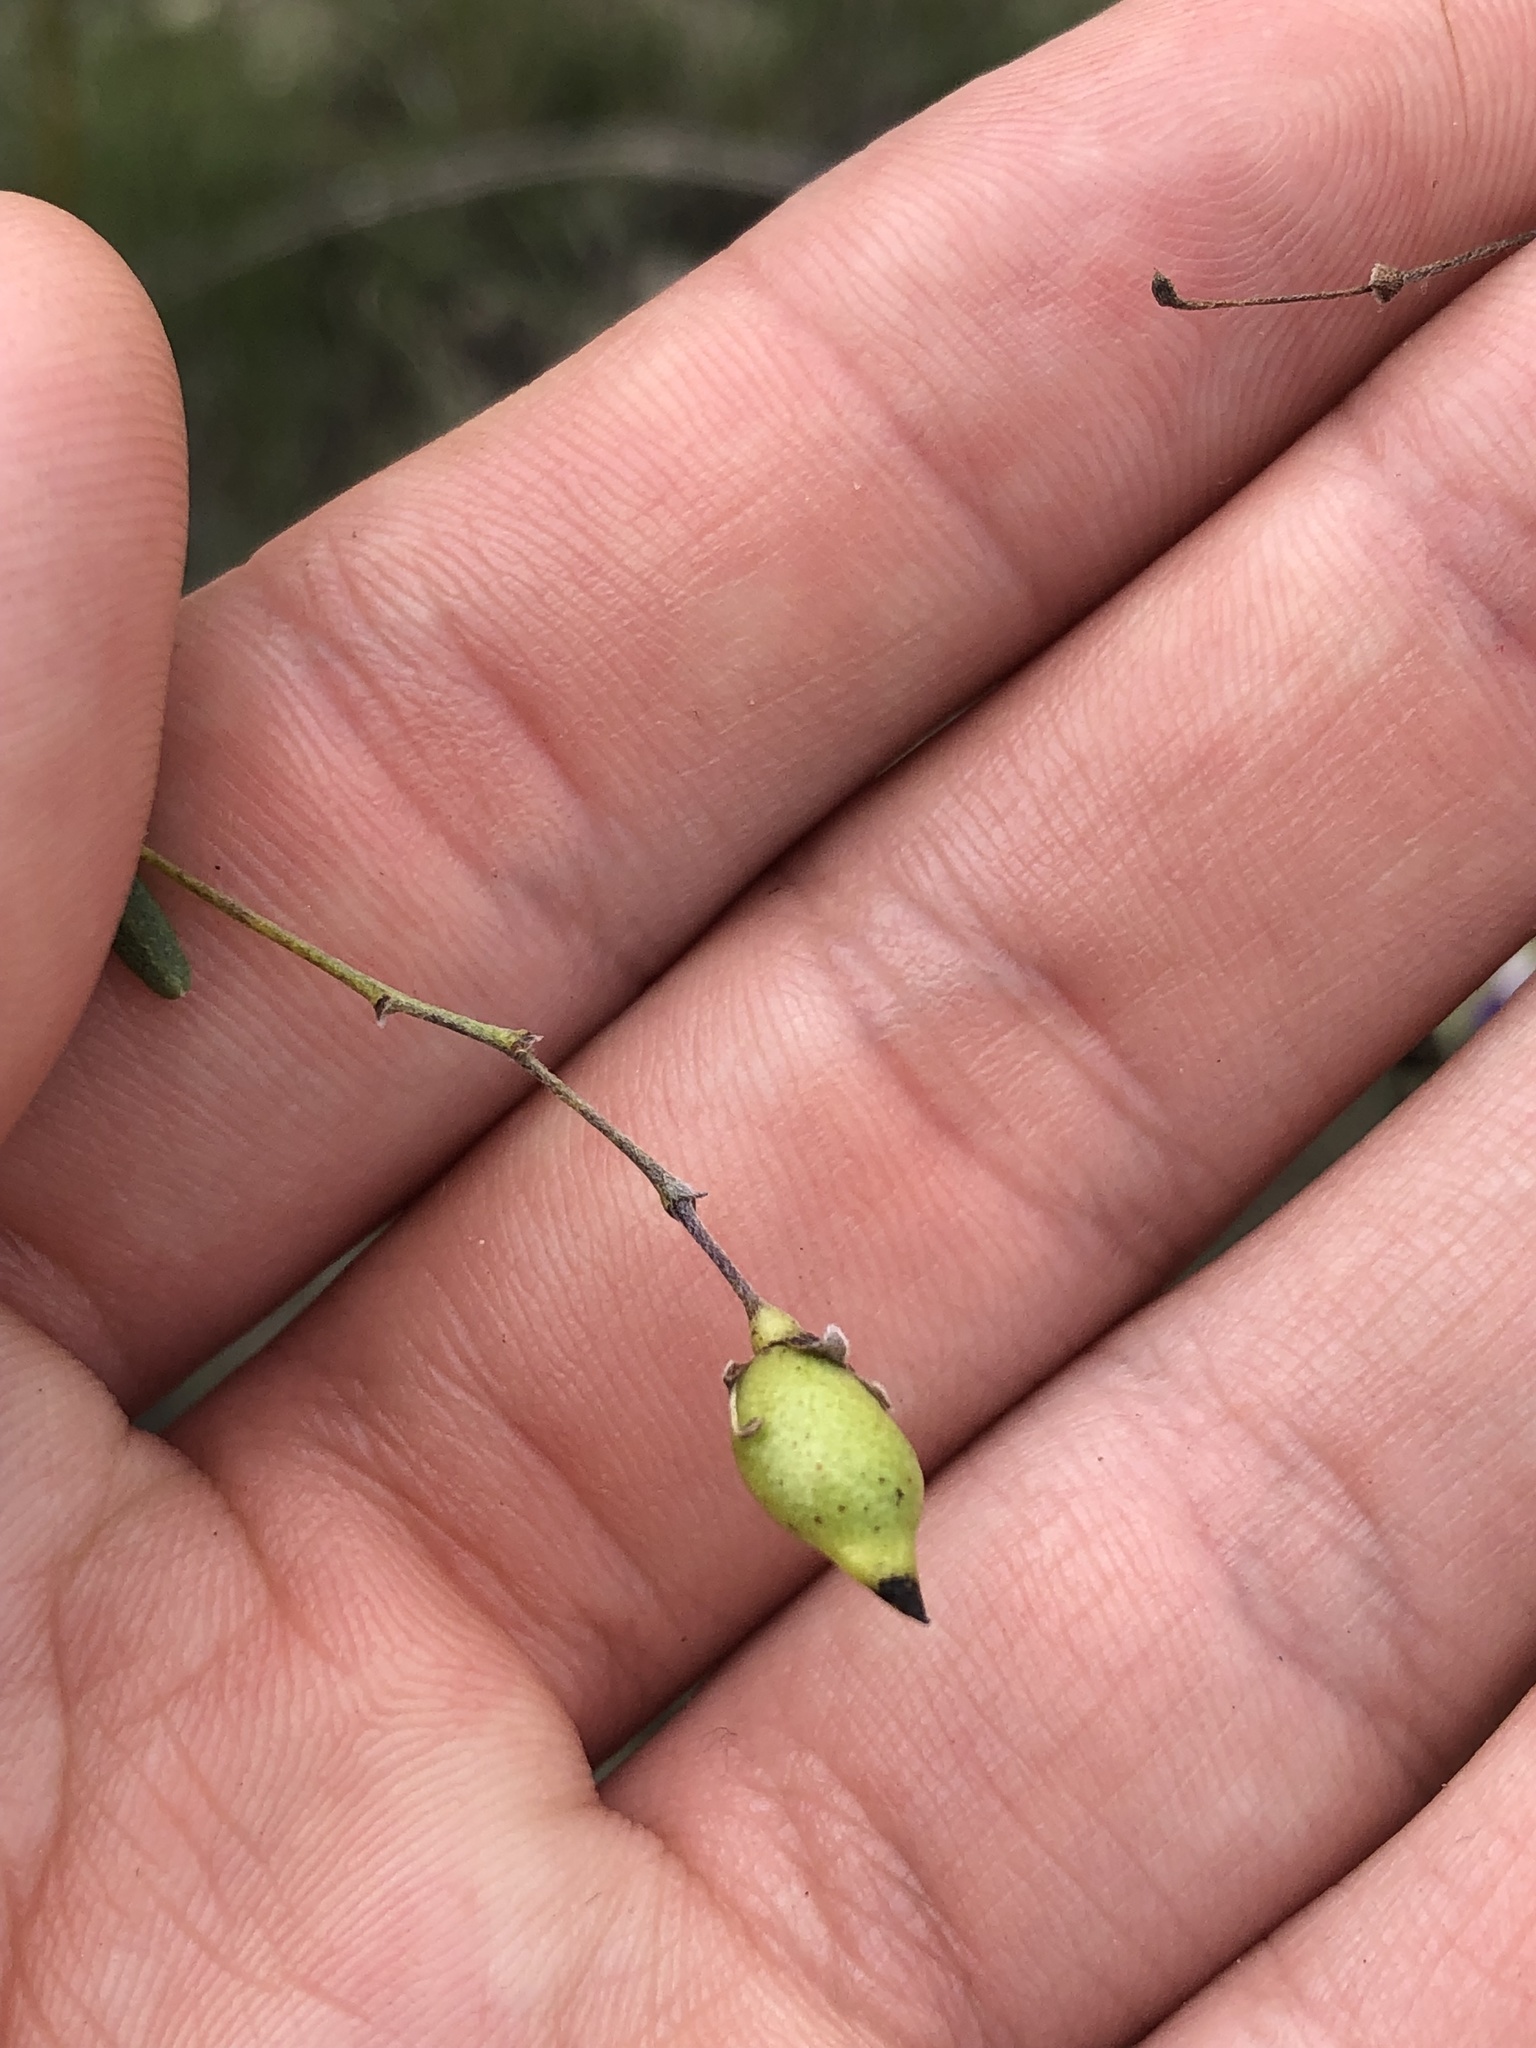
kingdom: Plantae
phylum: Tracheophyta
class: Magnoliopsida
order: Fabales
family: Fabaceae
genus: Pediomelum
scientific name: Pediomelum linearifolium
